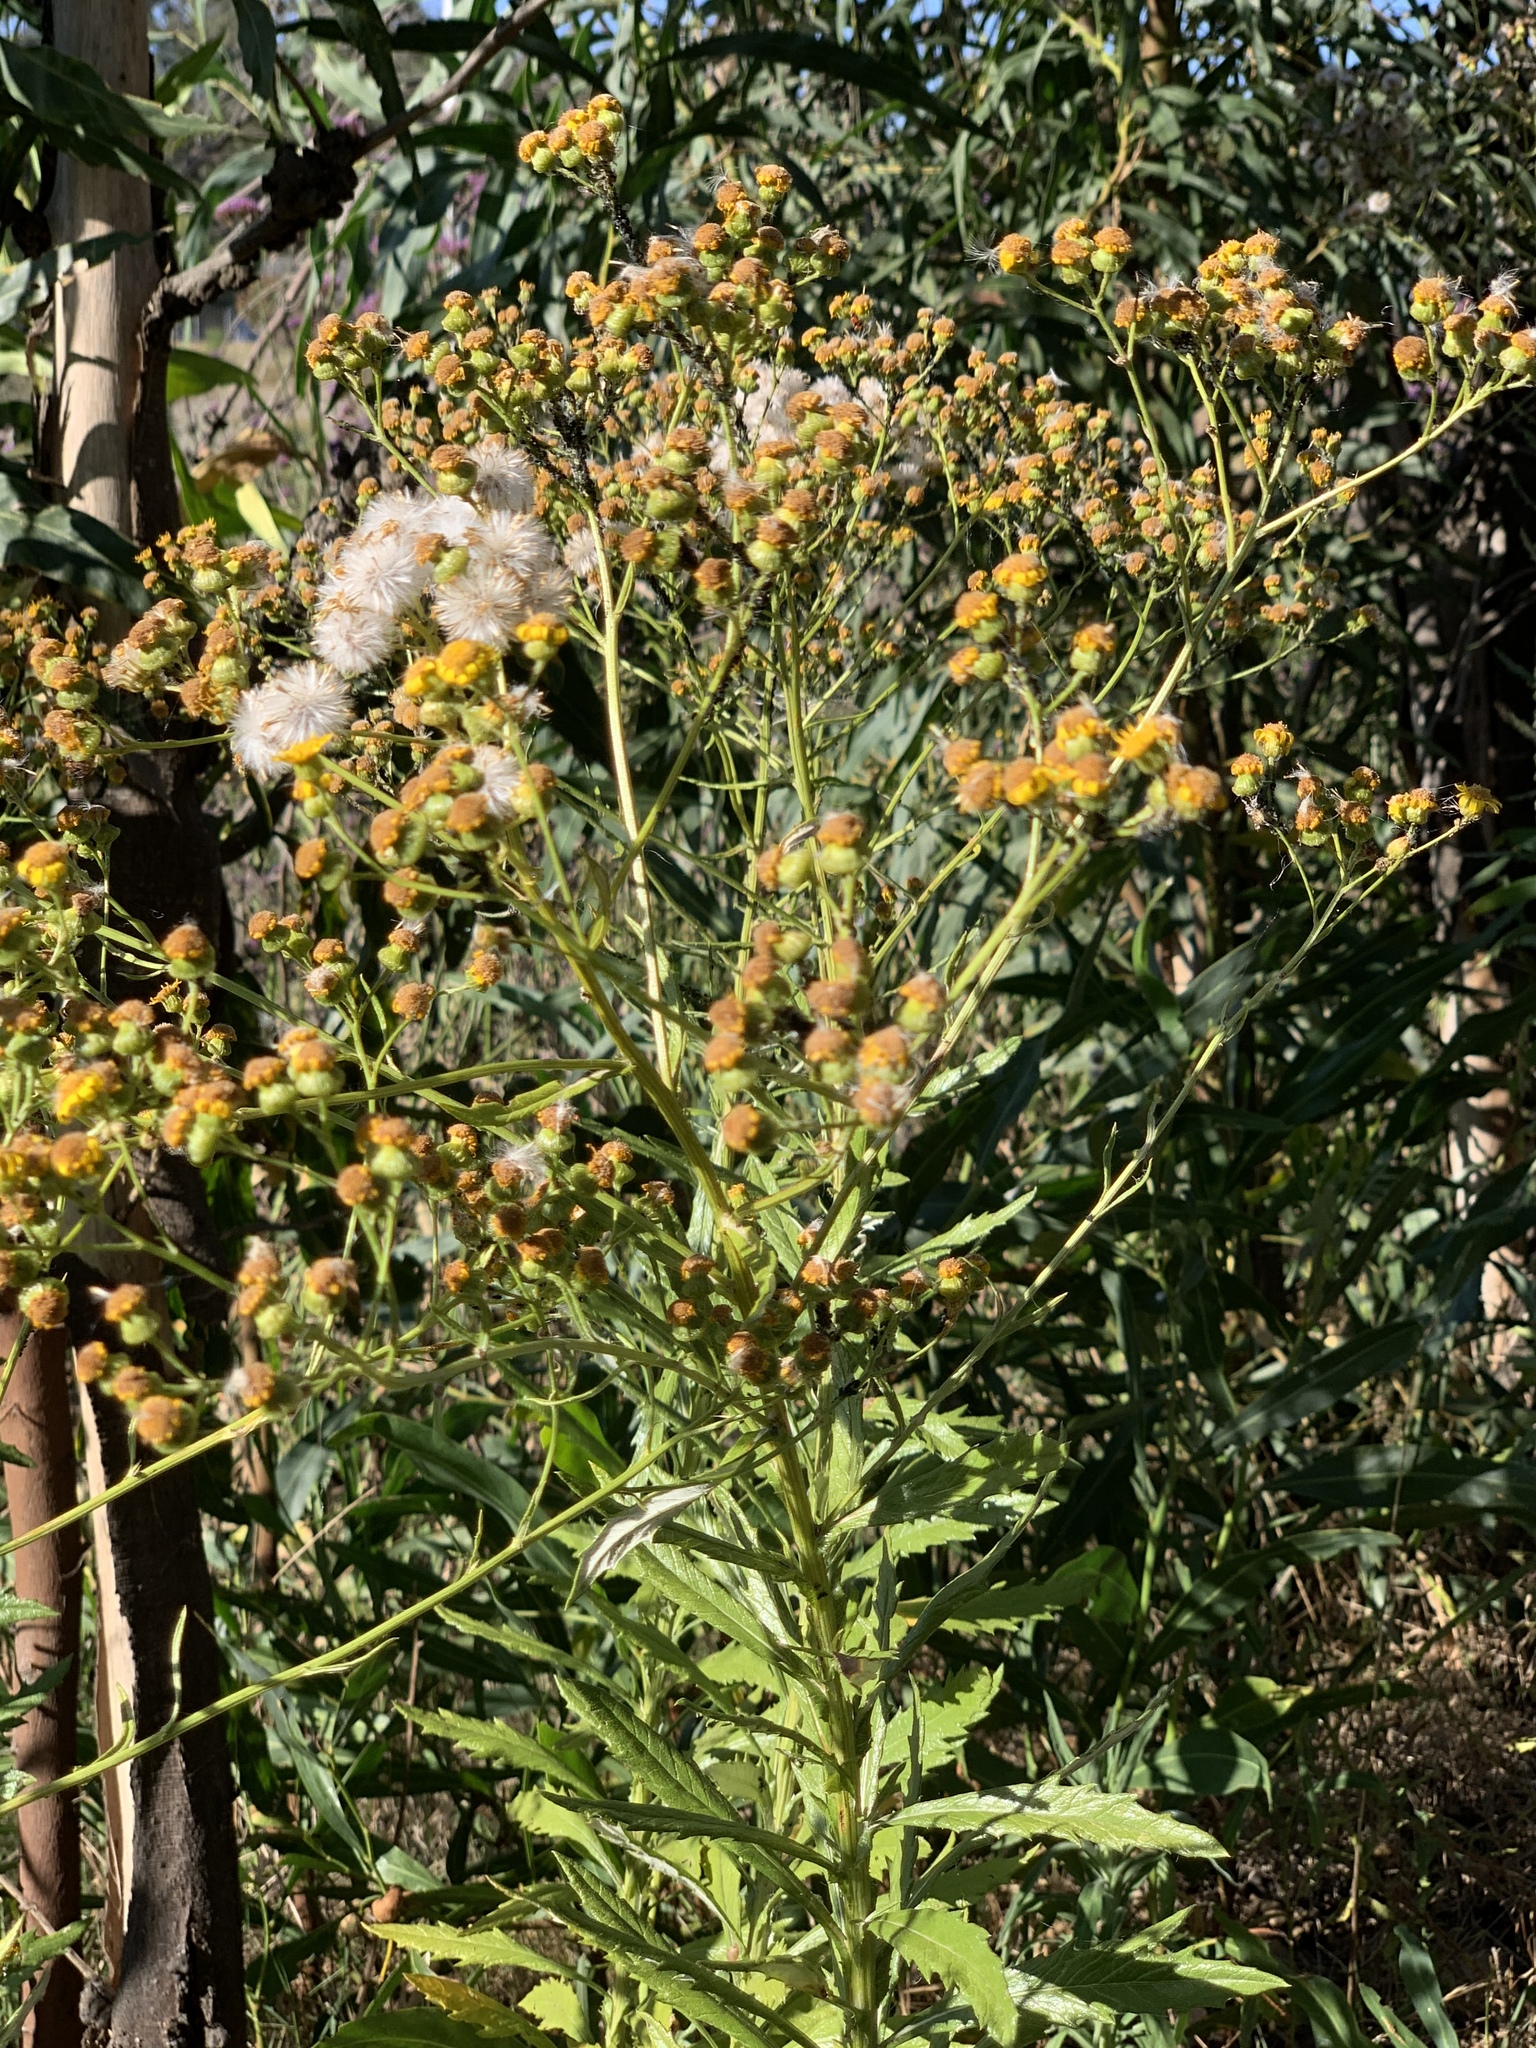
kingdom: Plantae
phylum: Tracheophyta
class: Magnoliopsida
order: Asterales
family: Asteraceae
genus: Senecio
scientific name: Senecio pterophorus
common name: Shoddy ragwort
